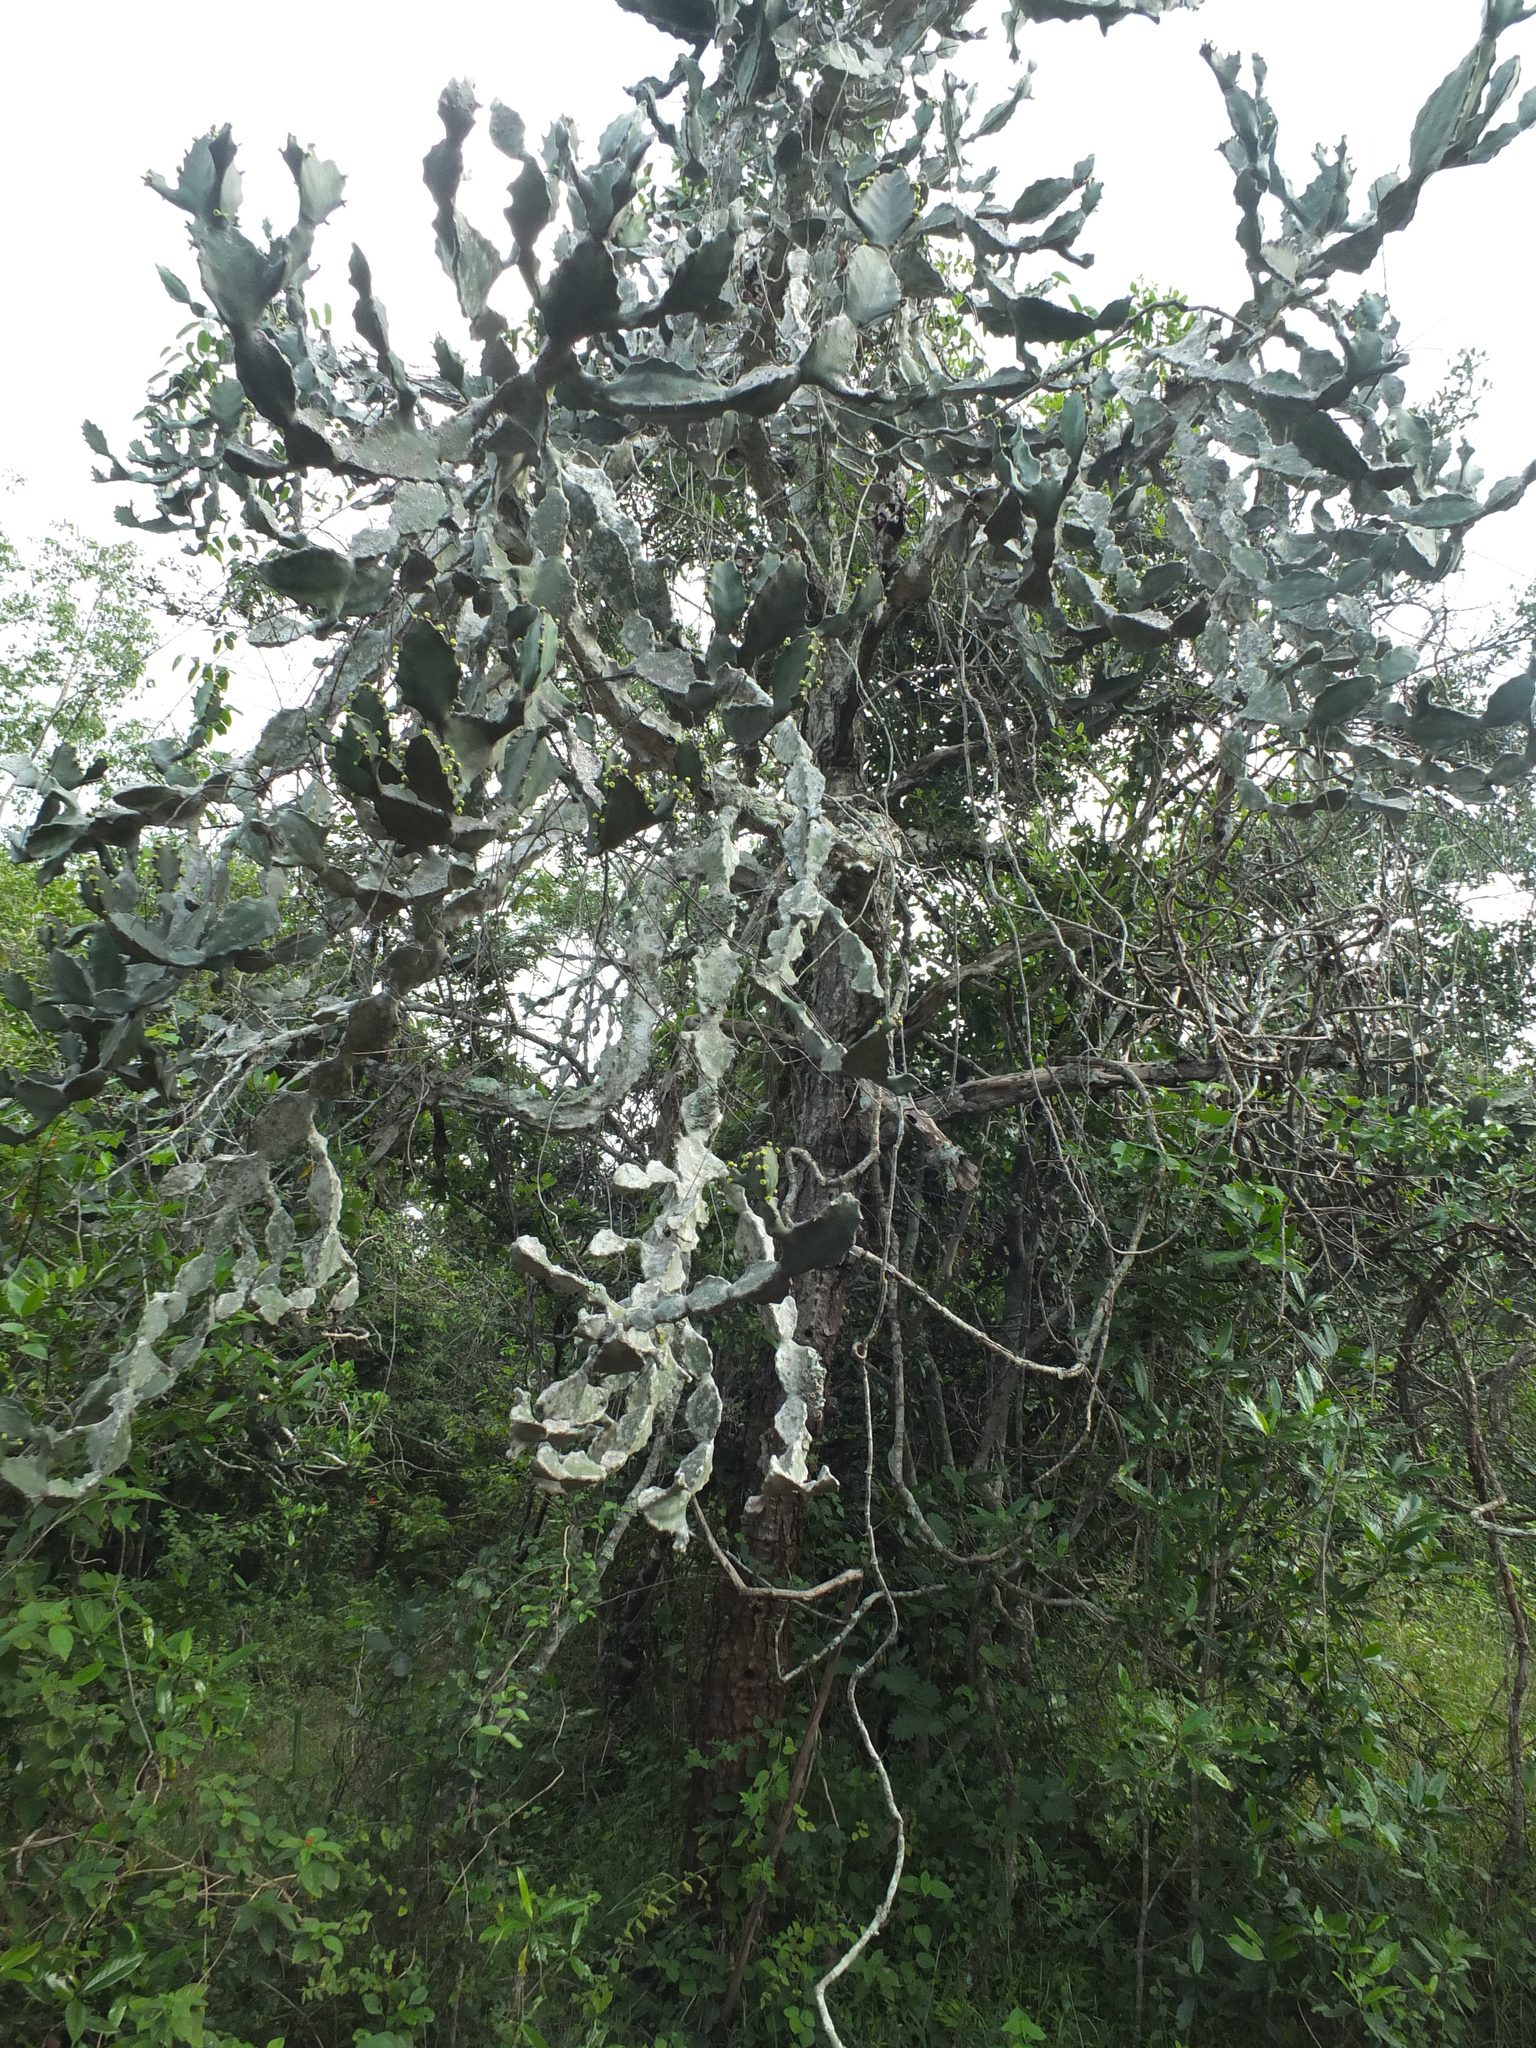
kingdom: Plantae
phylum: Tracheophyta
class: Magnoliopsida
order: Malpighiales
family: Euphorbiaceae
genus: Euphorbia
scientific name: Euphorbia antiquorum
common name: Malayan spurge tree
